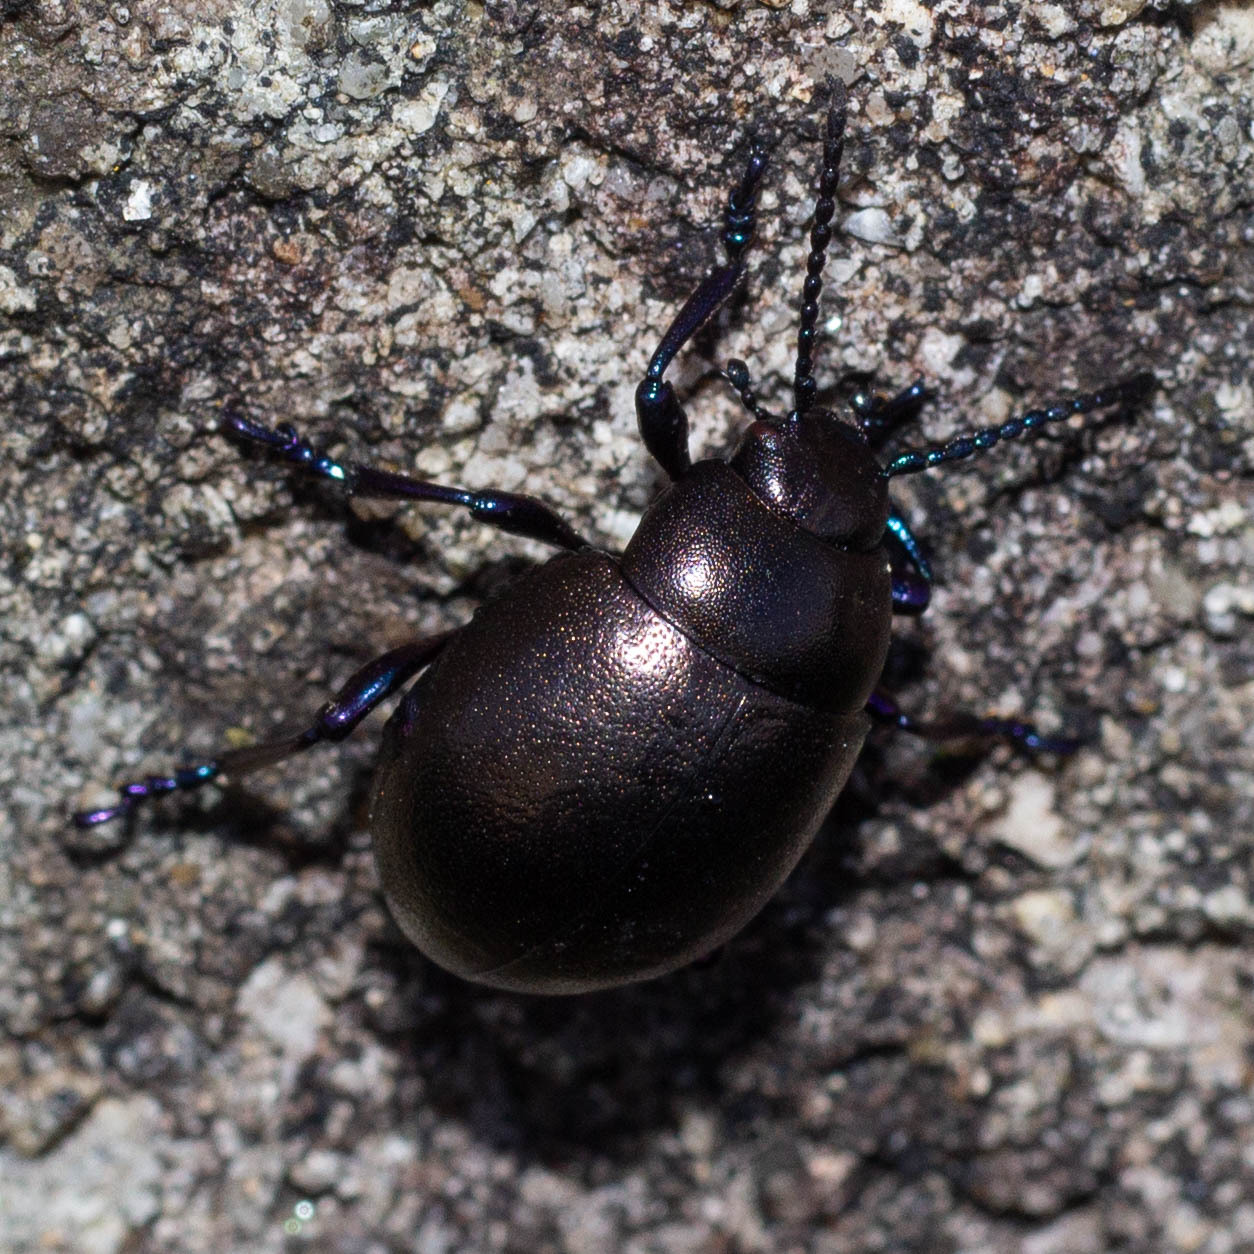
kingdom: Animalia
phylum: Arthropoda
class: Insecta
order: Coleoptera
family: Chrysomelidae
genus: Timarcha
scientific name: Timarcha lusitanica
